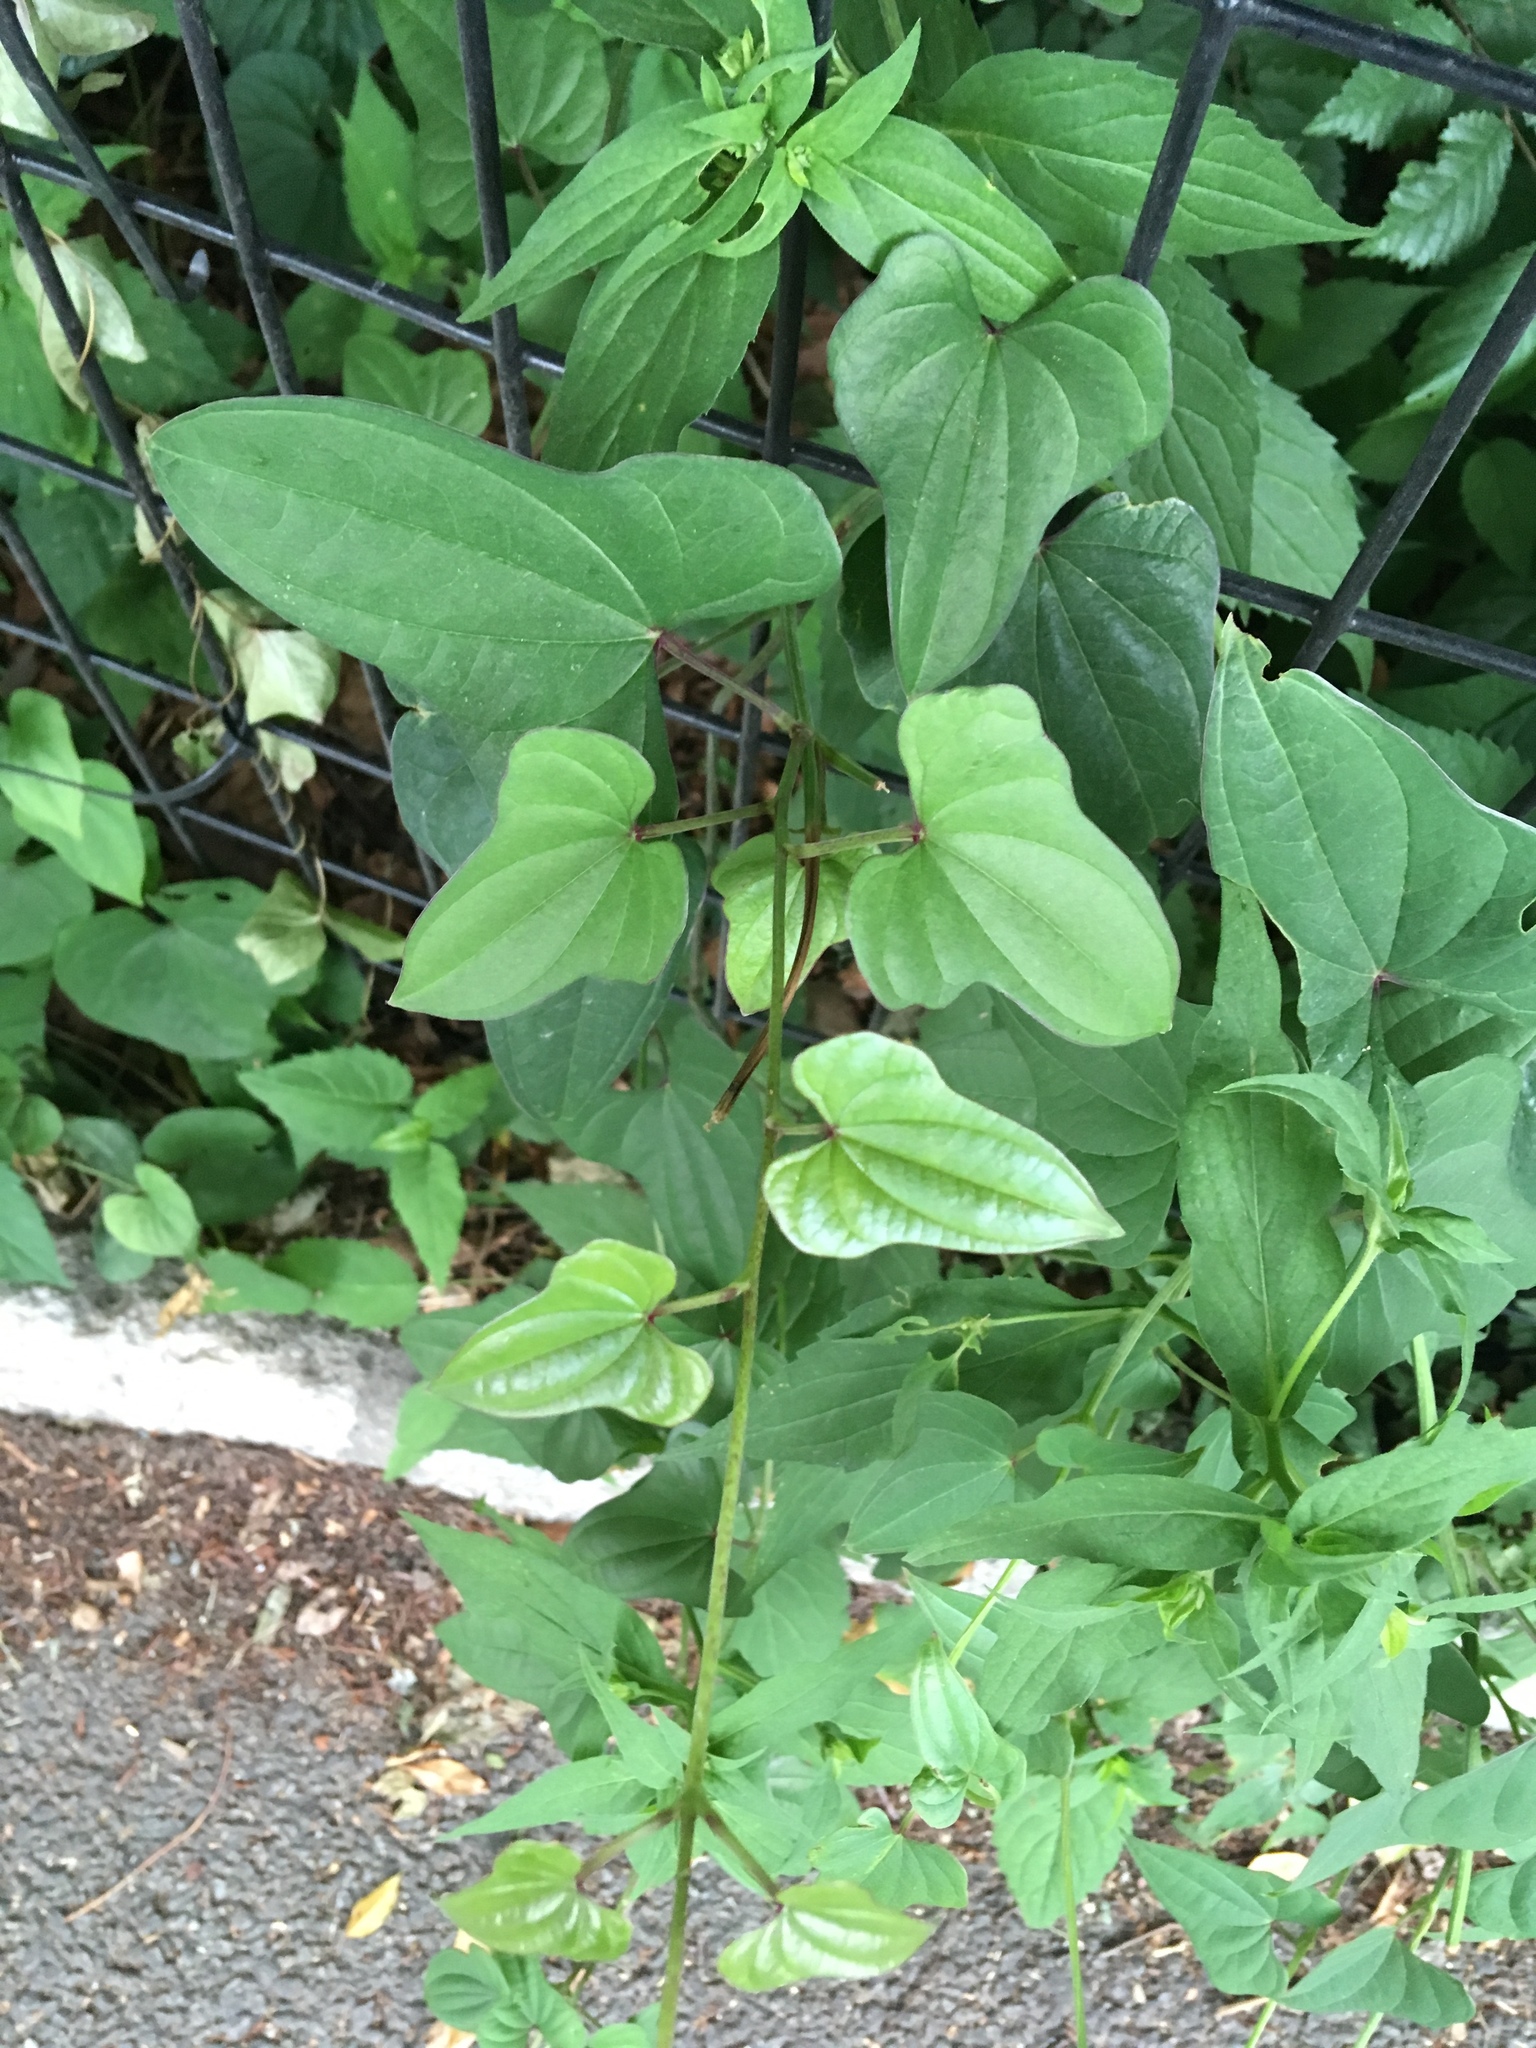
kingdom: Plantae
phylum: Tracheophyta
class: Liliopsida
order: Dioscoreales
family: Dioscoreaceae
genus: Dioscorea
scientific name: Dioscorea polystachya
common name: Chinese yam
